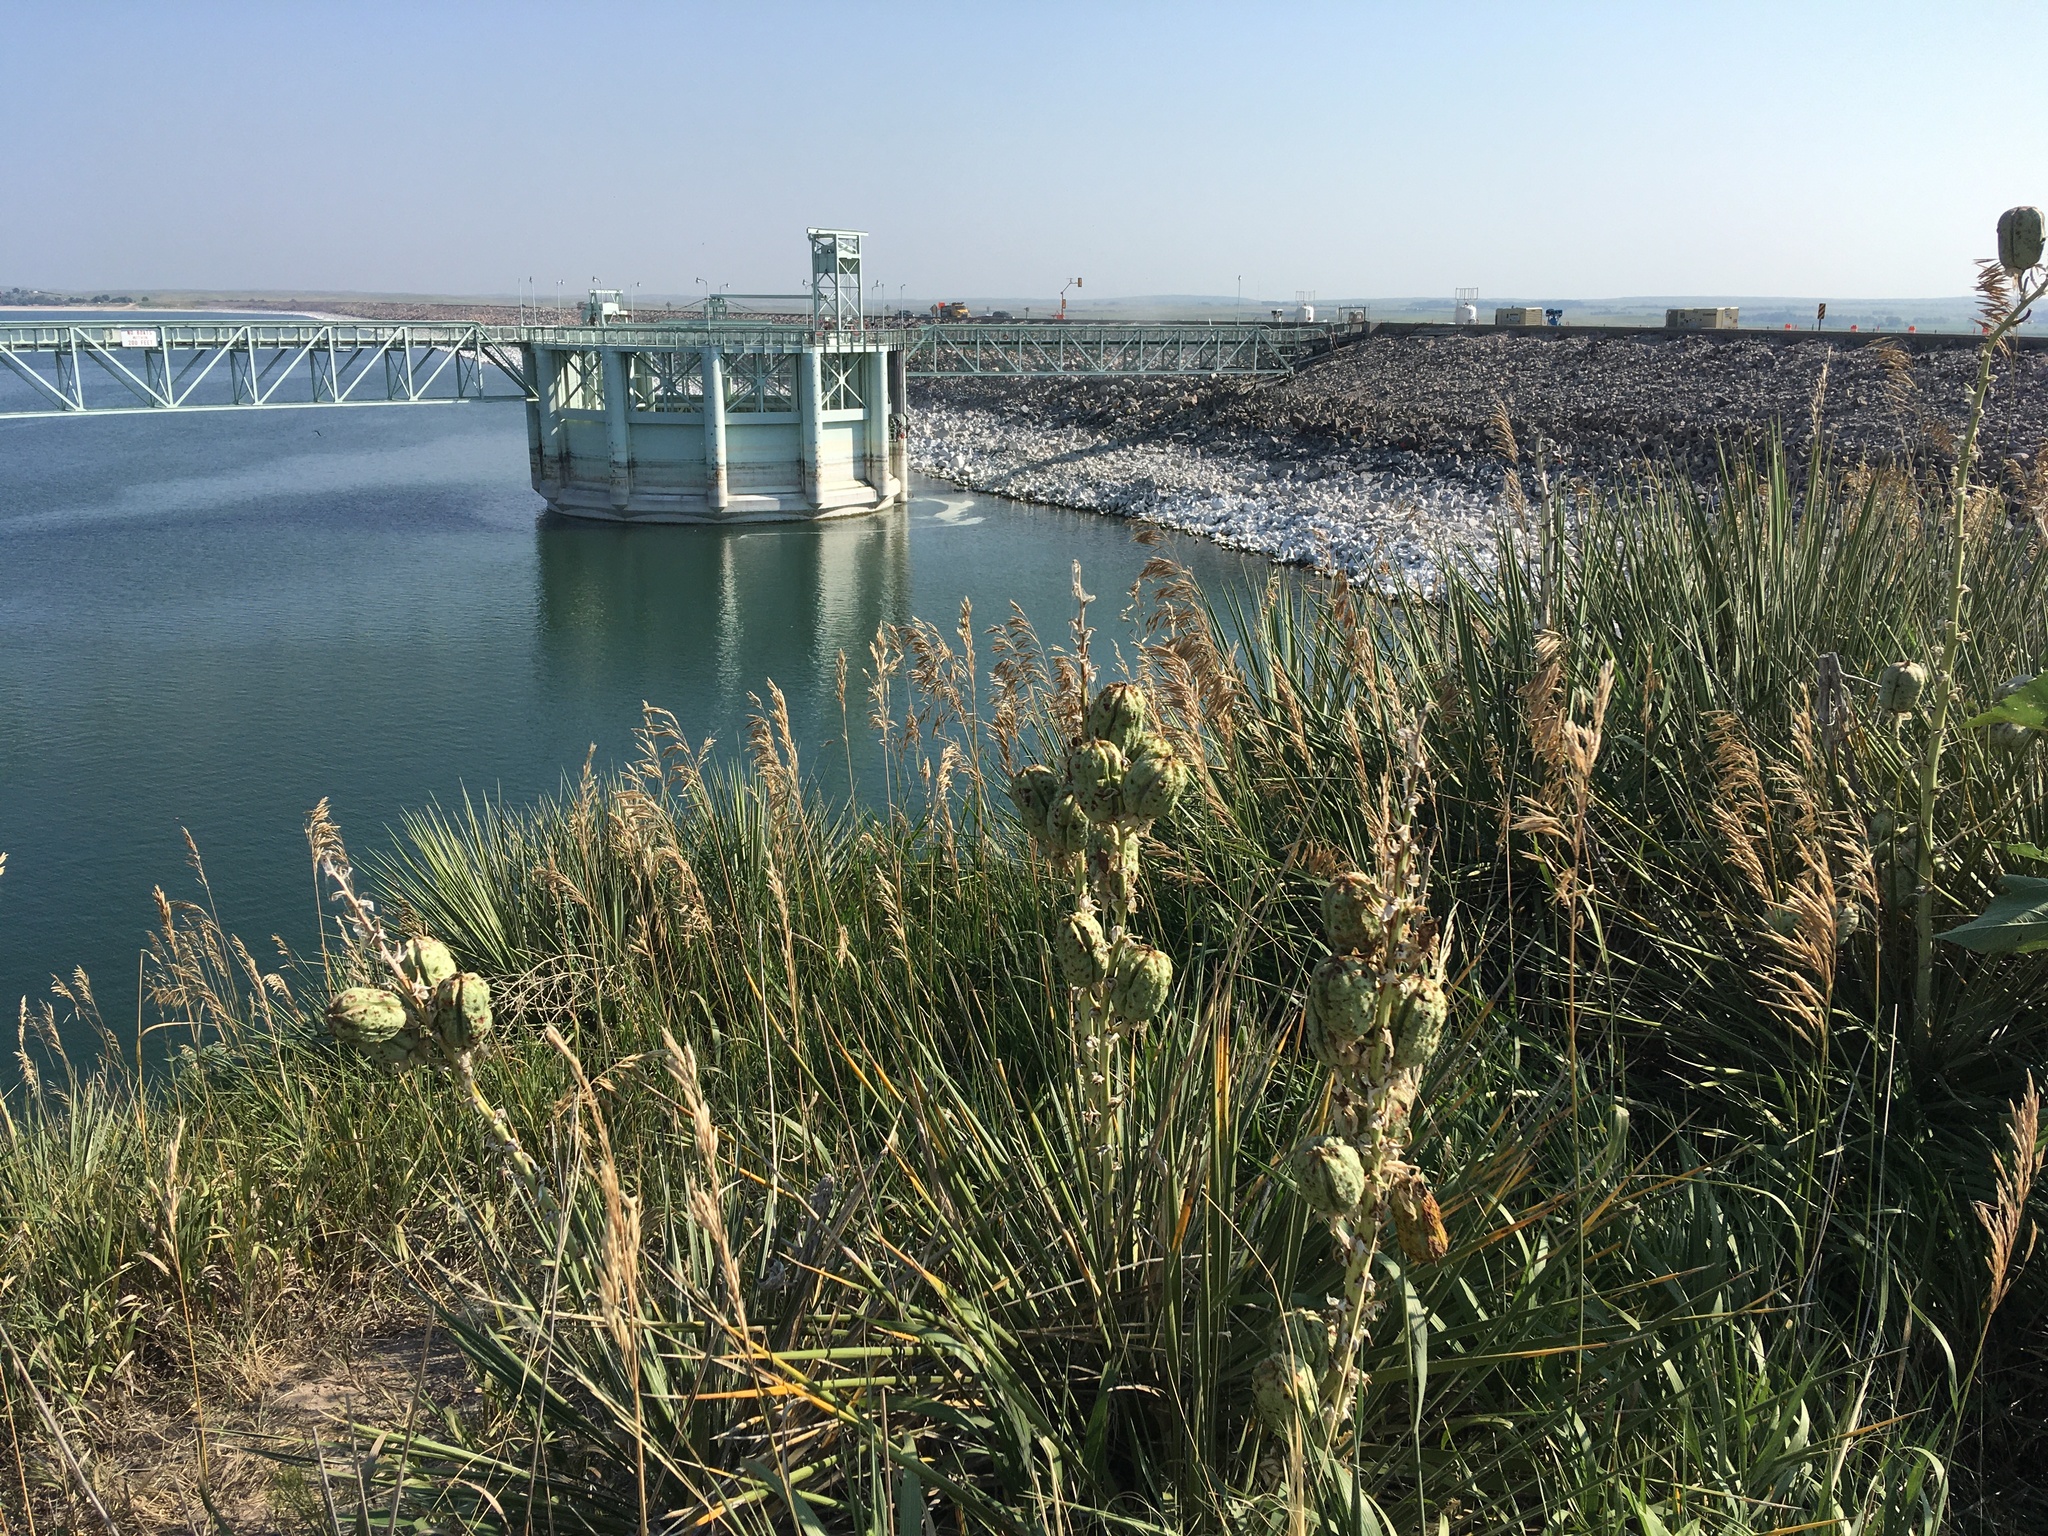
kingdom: Plantae
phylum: Tracheophyta
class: Liliopsida
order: Asparagales
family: Asparagaceae
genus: Yucca
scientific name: Yucca glauca
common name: Great plains yucca
